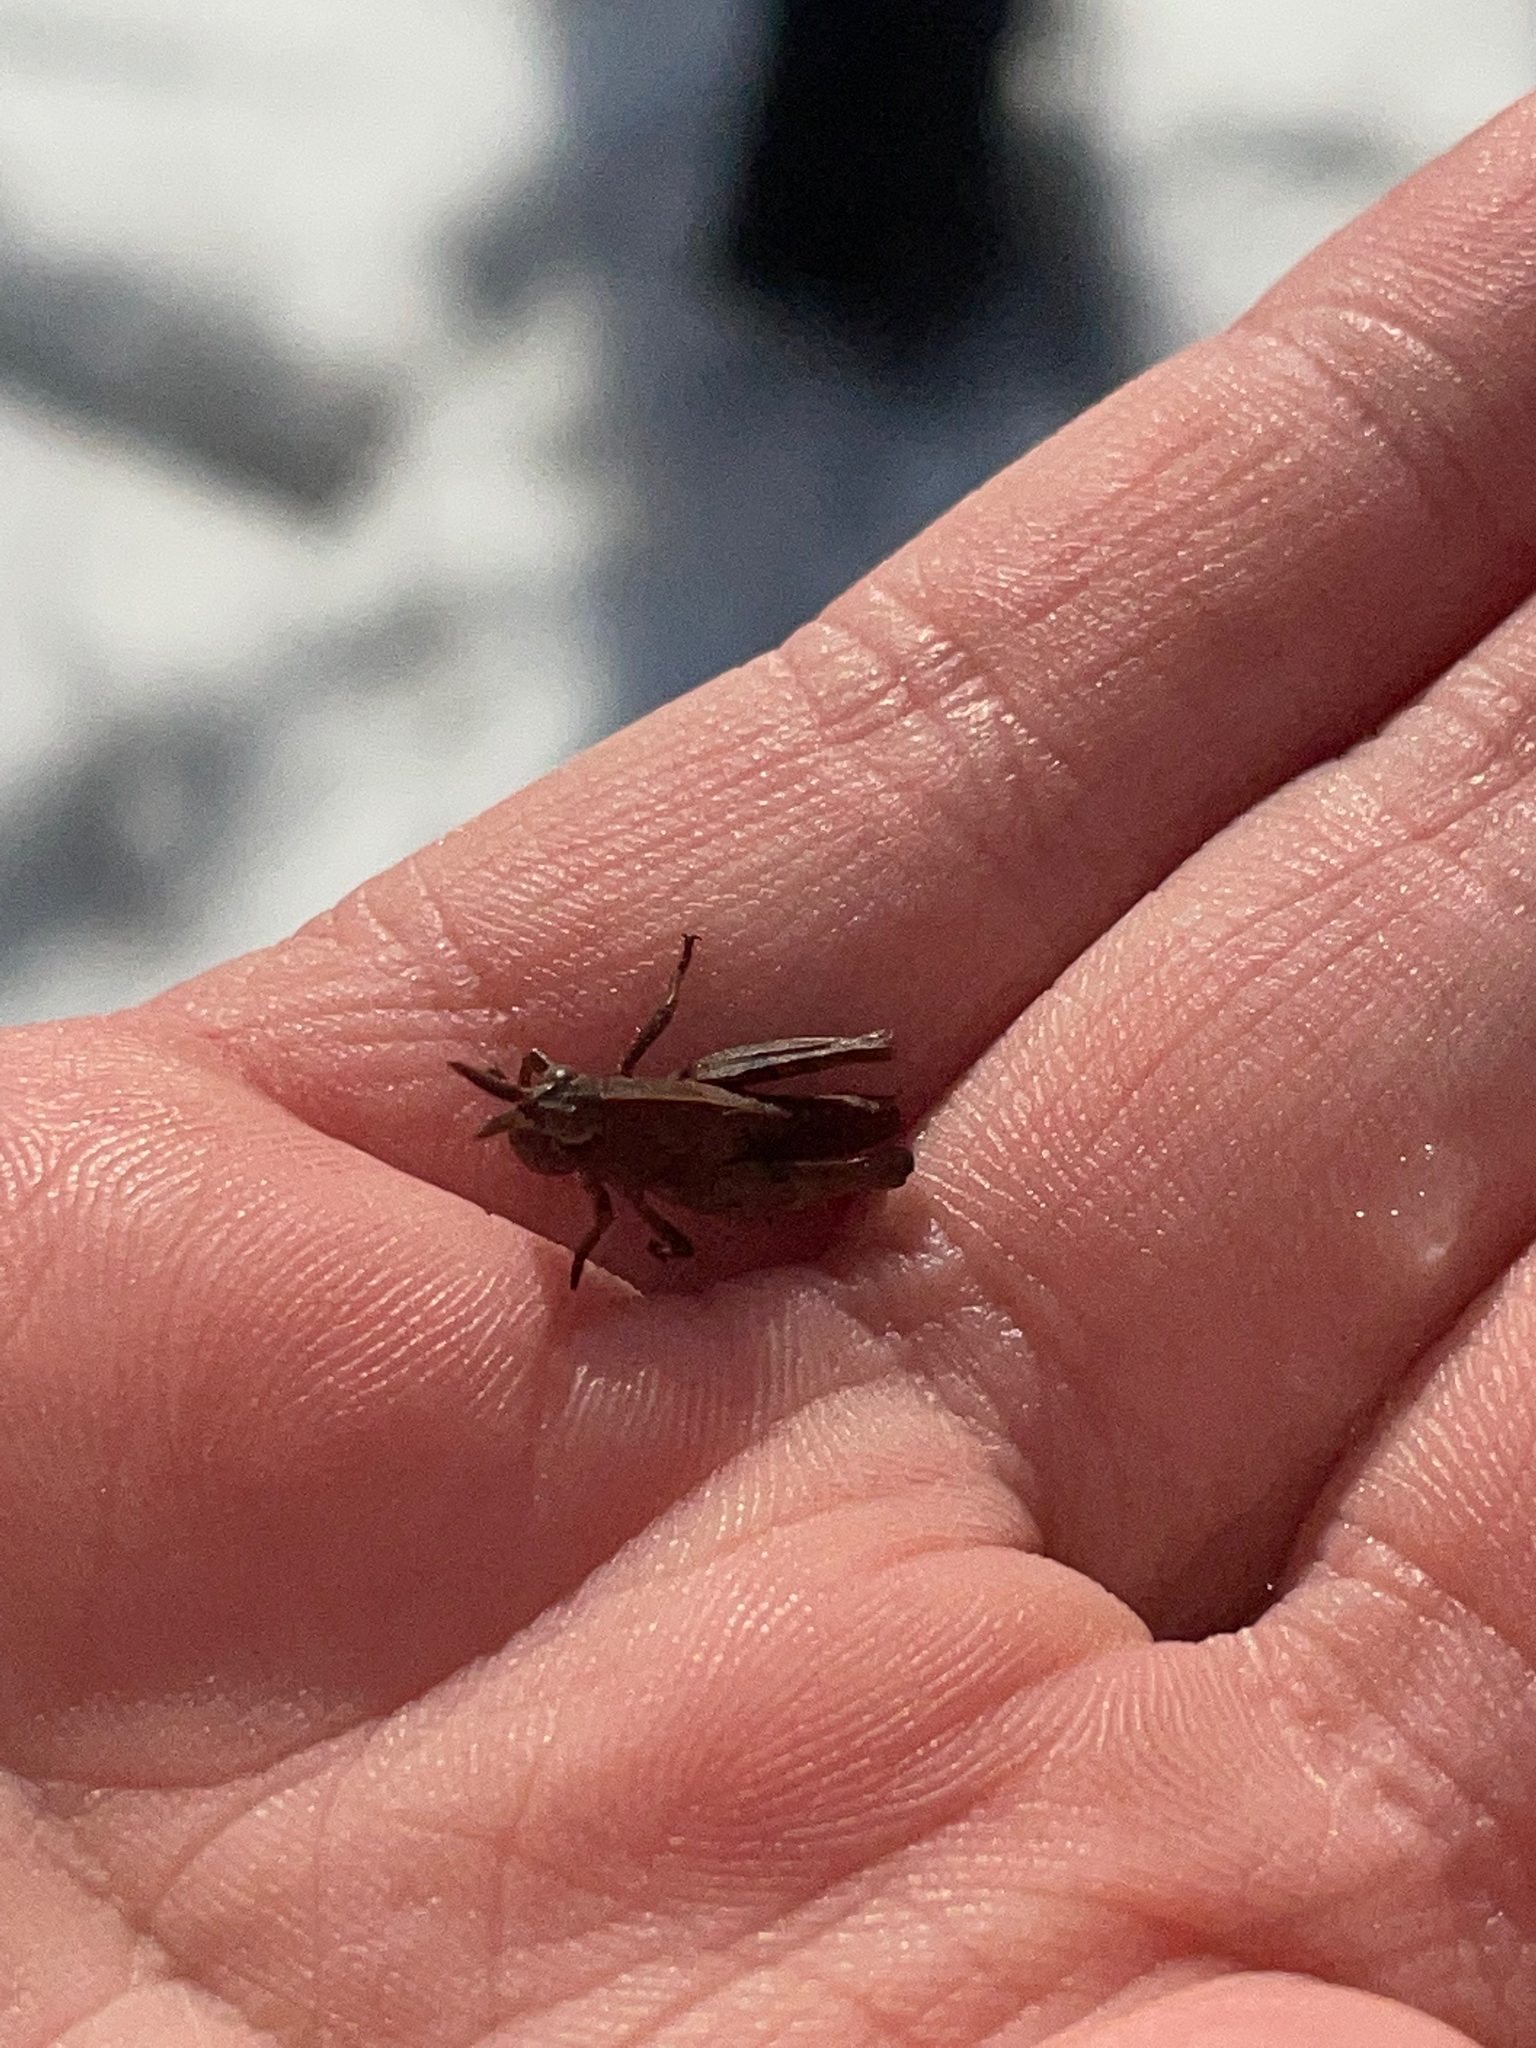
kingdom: Animalia
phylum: Arthropoda
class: Insecta
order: Orthoptera
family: Acrididae
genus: Chortophaga
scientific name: Chortophaga viridifasciata
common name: Green-striped grasshopper
